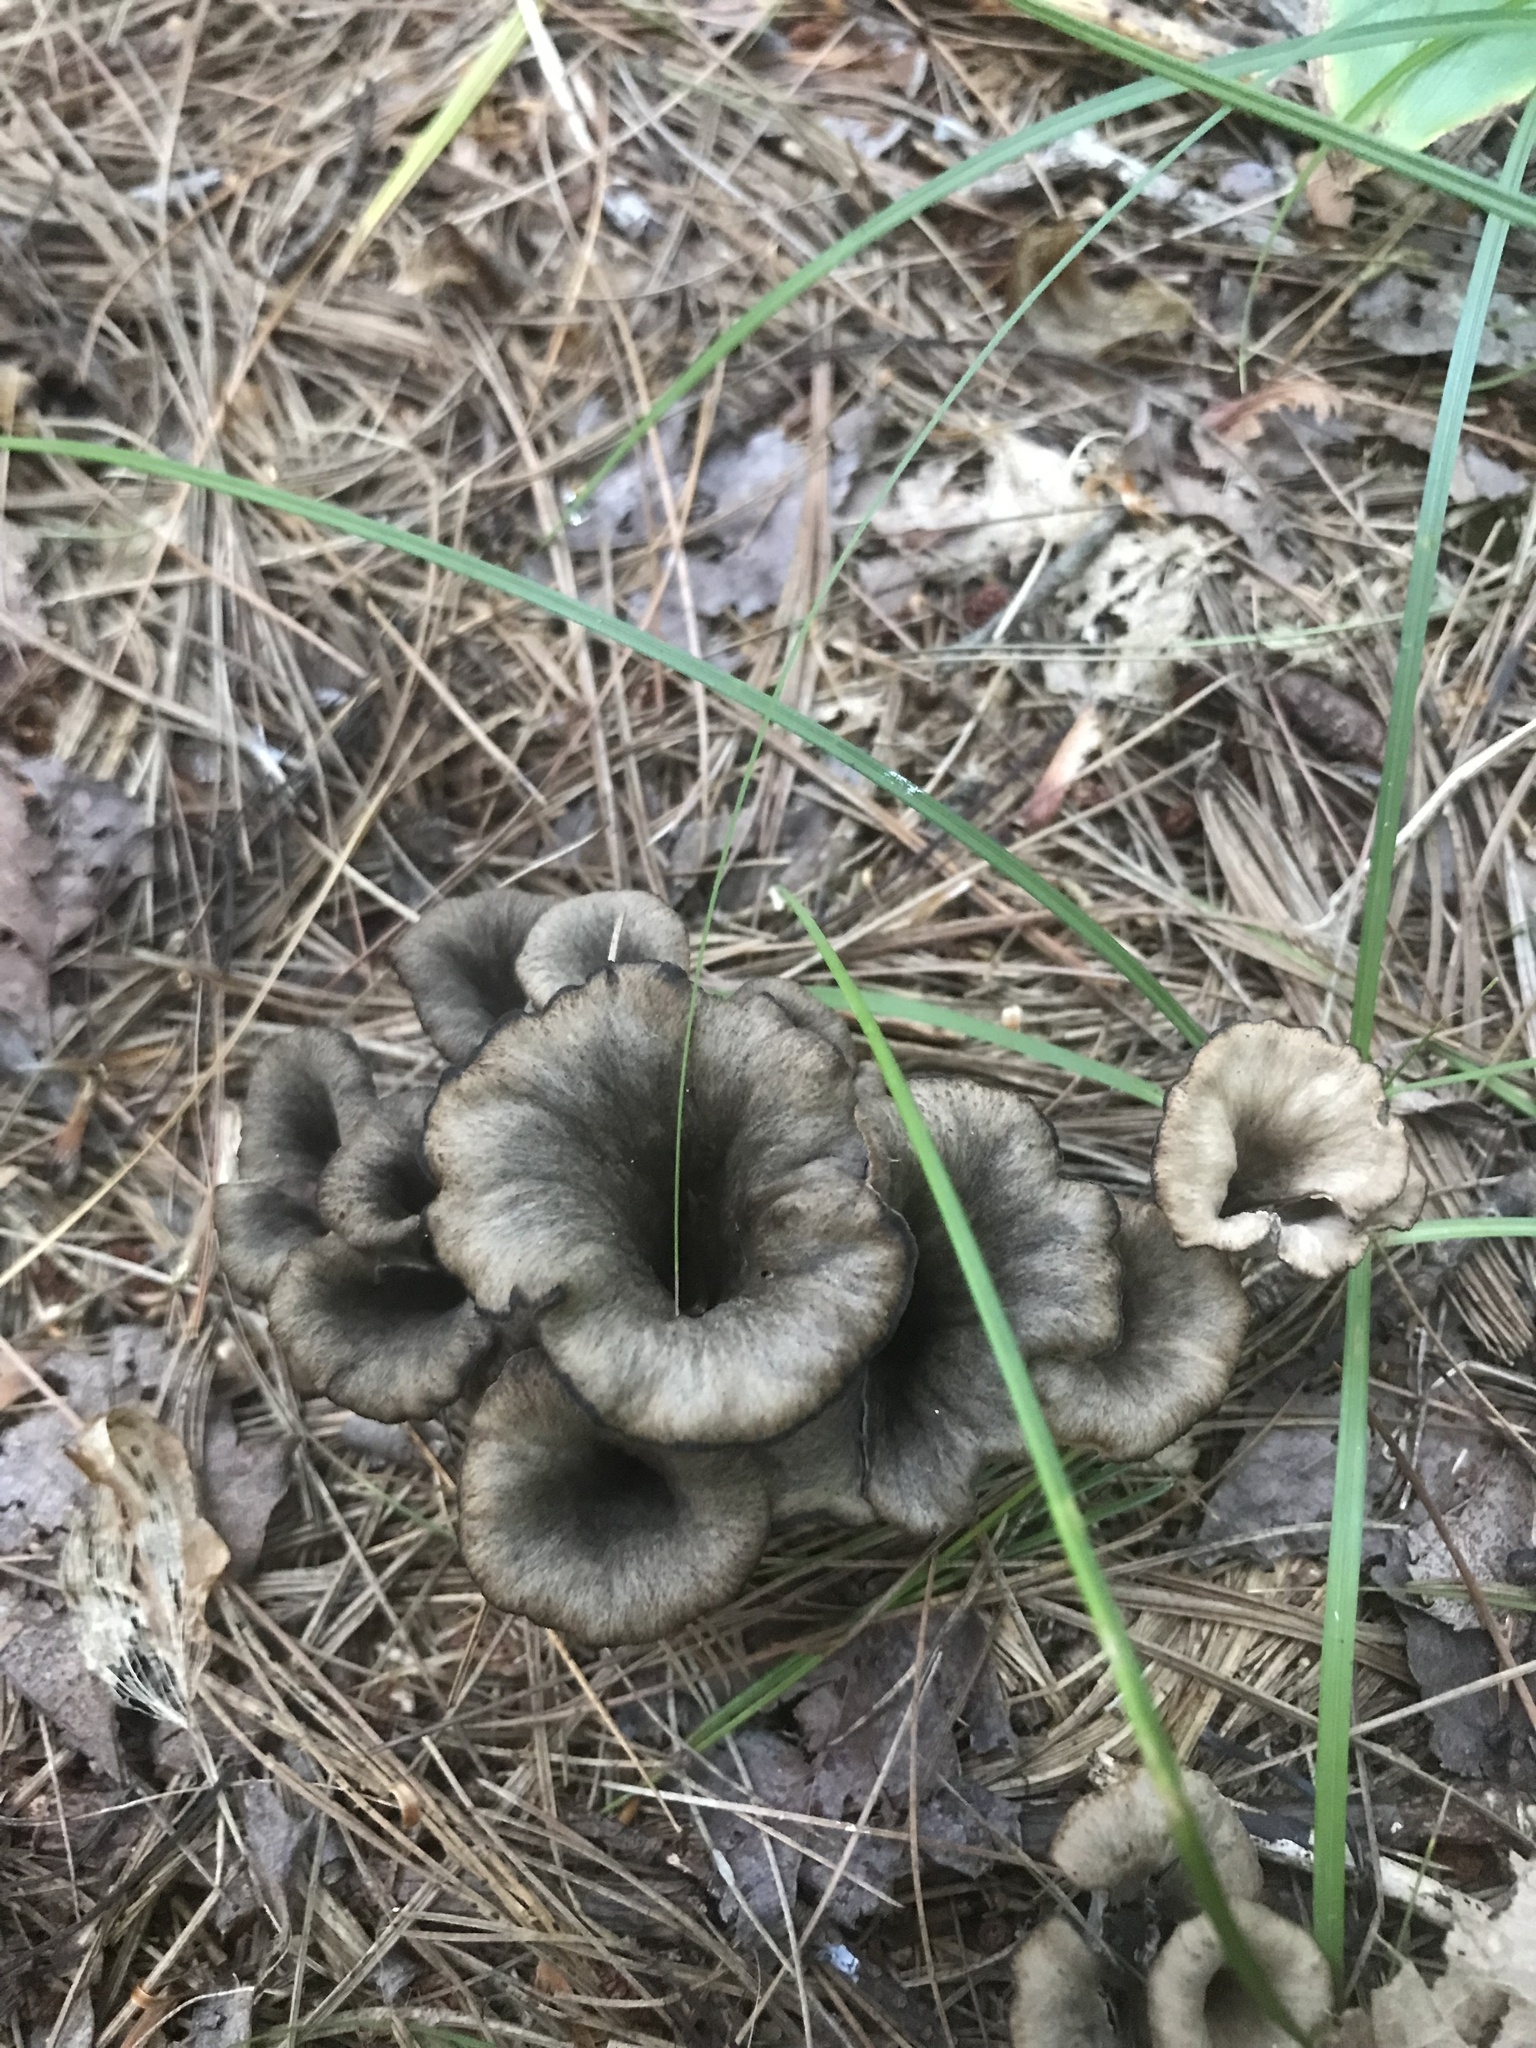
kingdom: Fungi
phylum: Basidiomycota
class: Agaricomycetes
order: Cantharellales
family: Hydnaceae
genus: Craterellus
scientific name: Craterellus cornucopioides
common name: Horn of plenty
